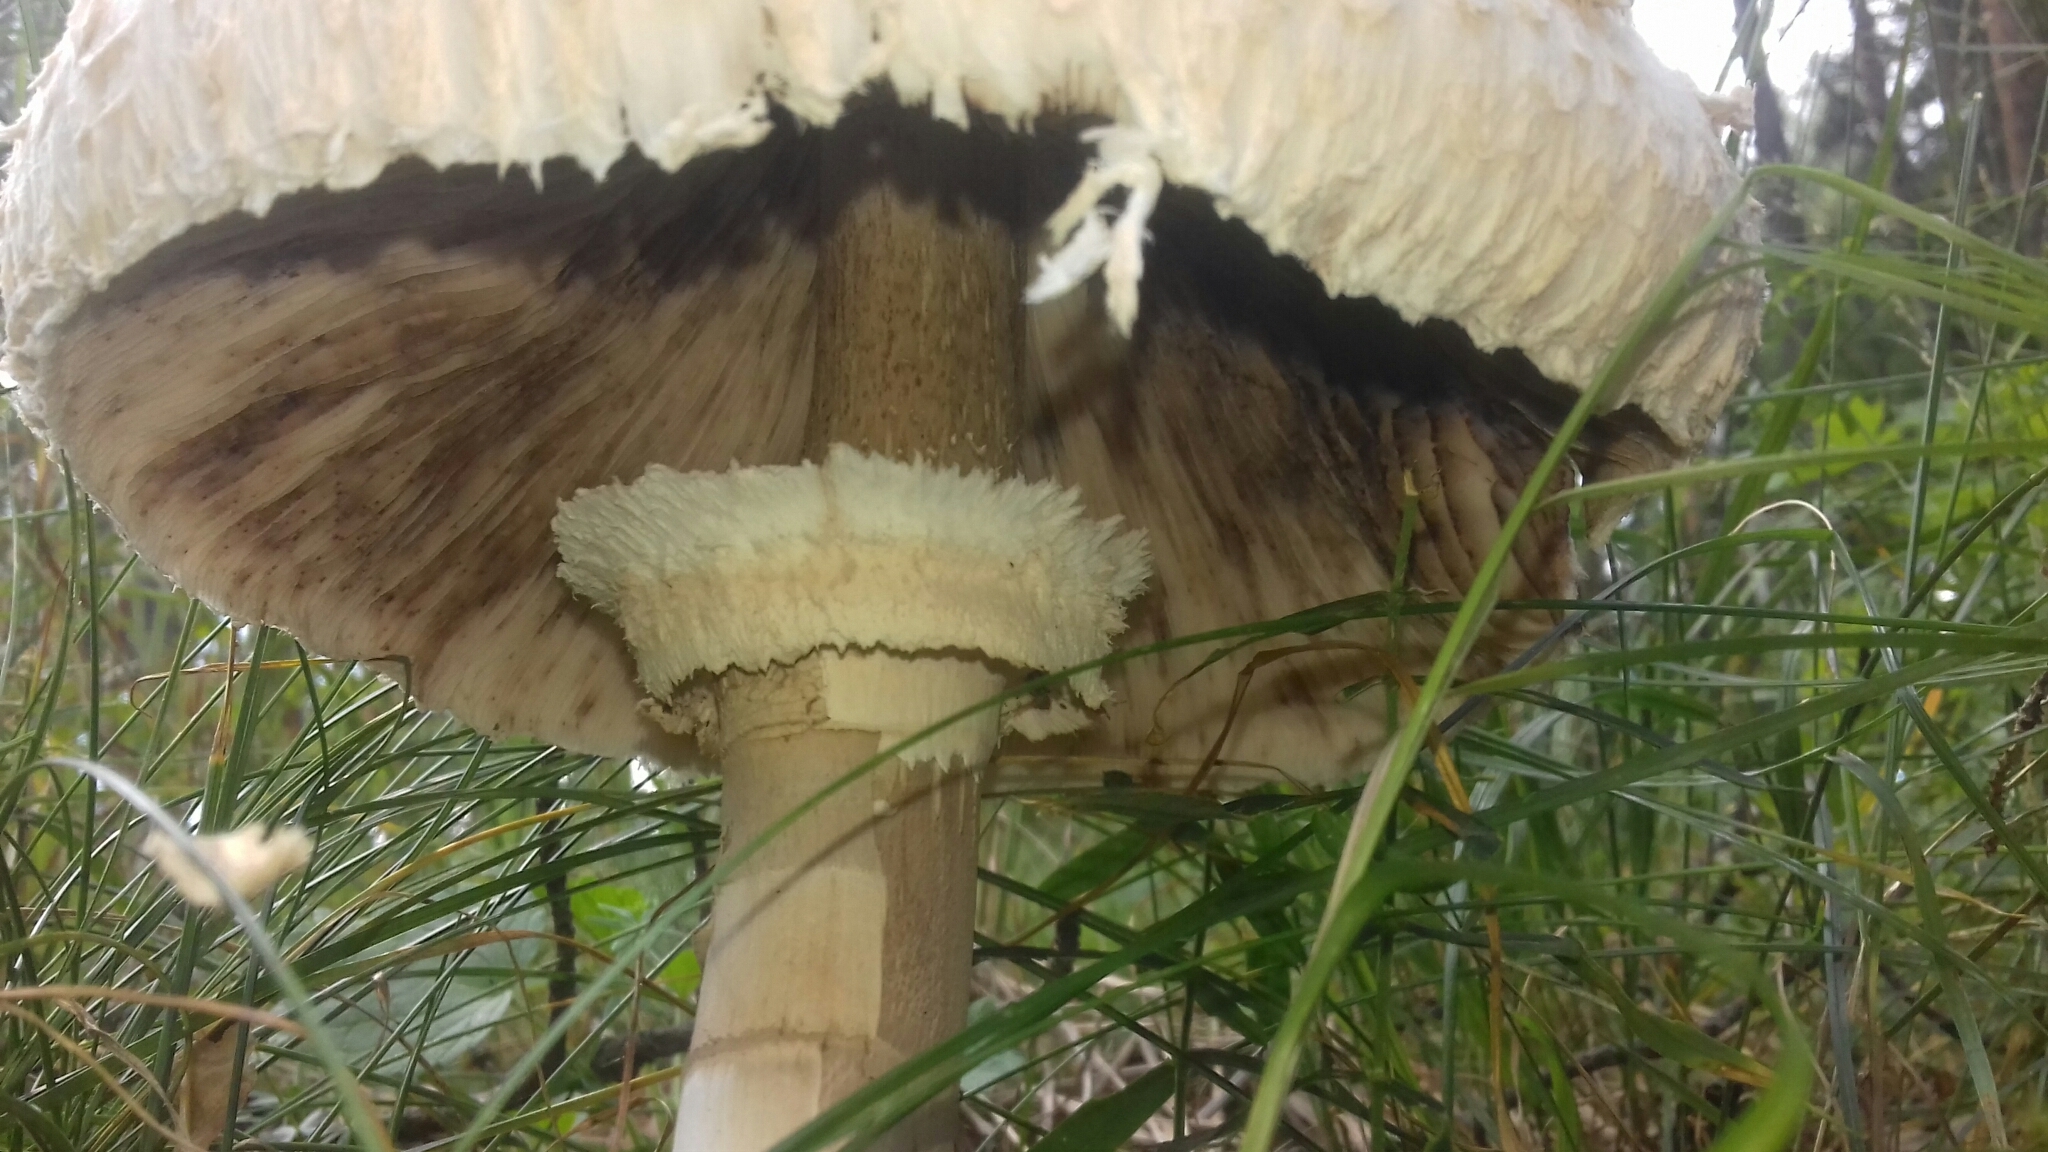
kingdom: Fungi
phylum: Basidiomycota
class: Agaricomycetes
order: Agaricales
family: Agaricaceae
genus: Macrolepiota
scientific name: Macrolepiota procera
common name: Parasol
